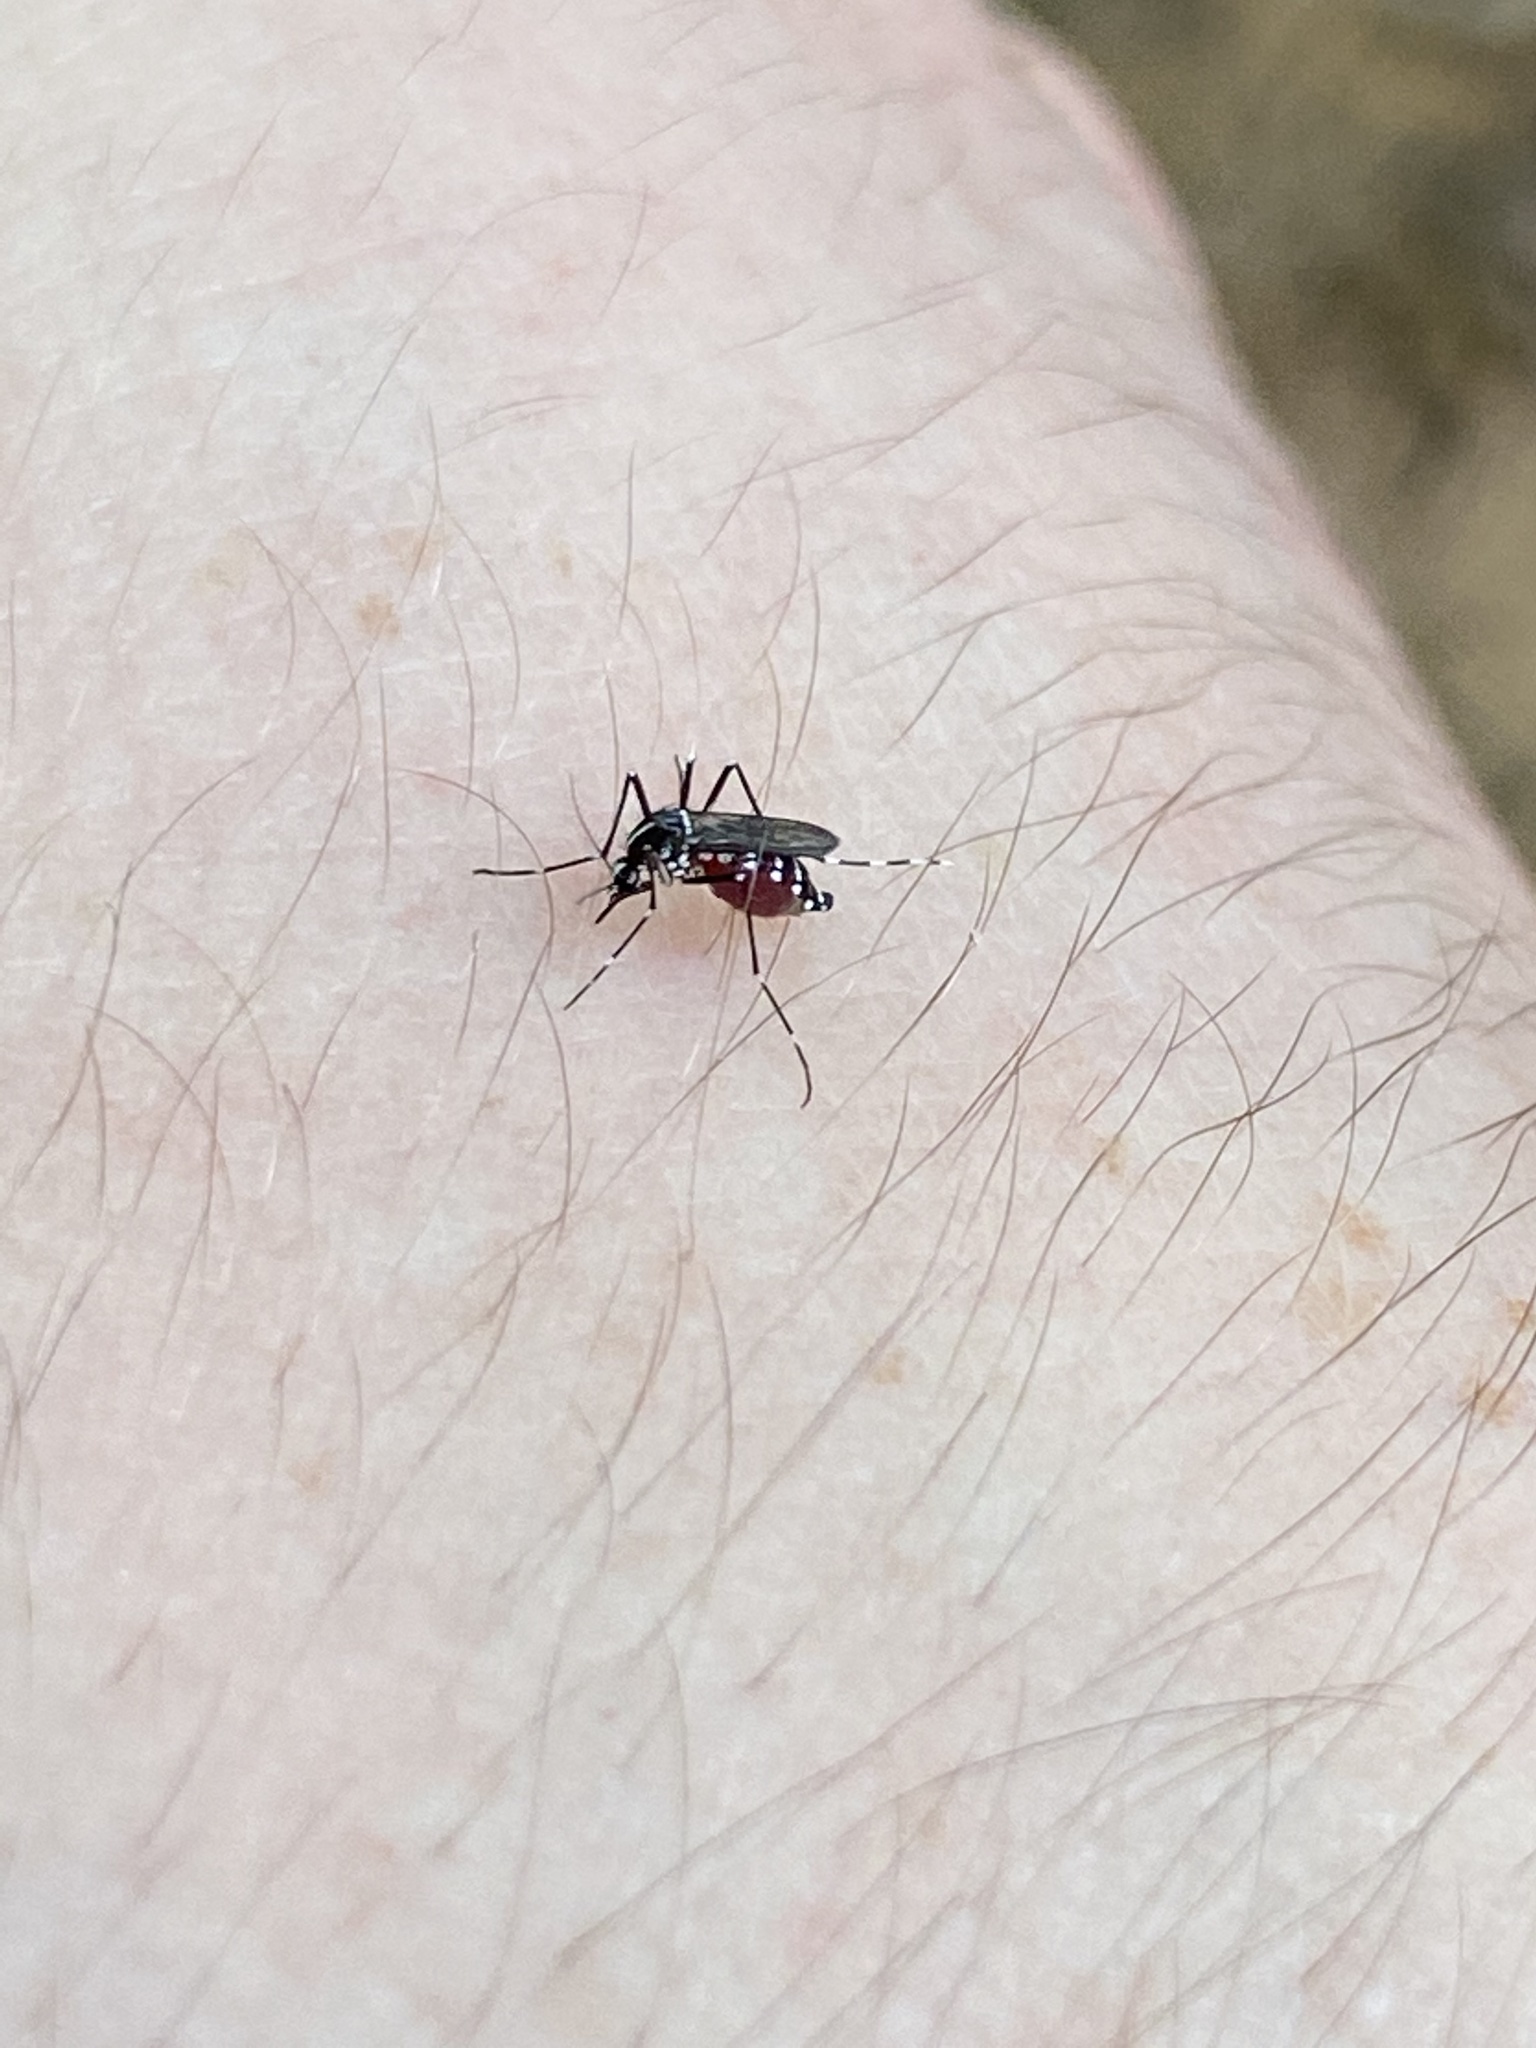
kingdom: Animalia
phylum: Arthropoda
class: Insecta
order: Diptera
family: Culicidae
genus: Aedes
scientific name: Aedes albopictus
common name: Tiger mosquito
